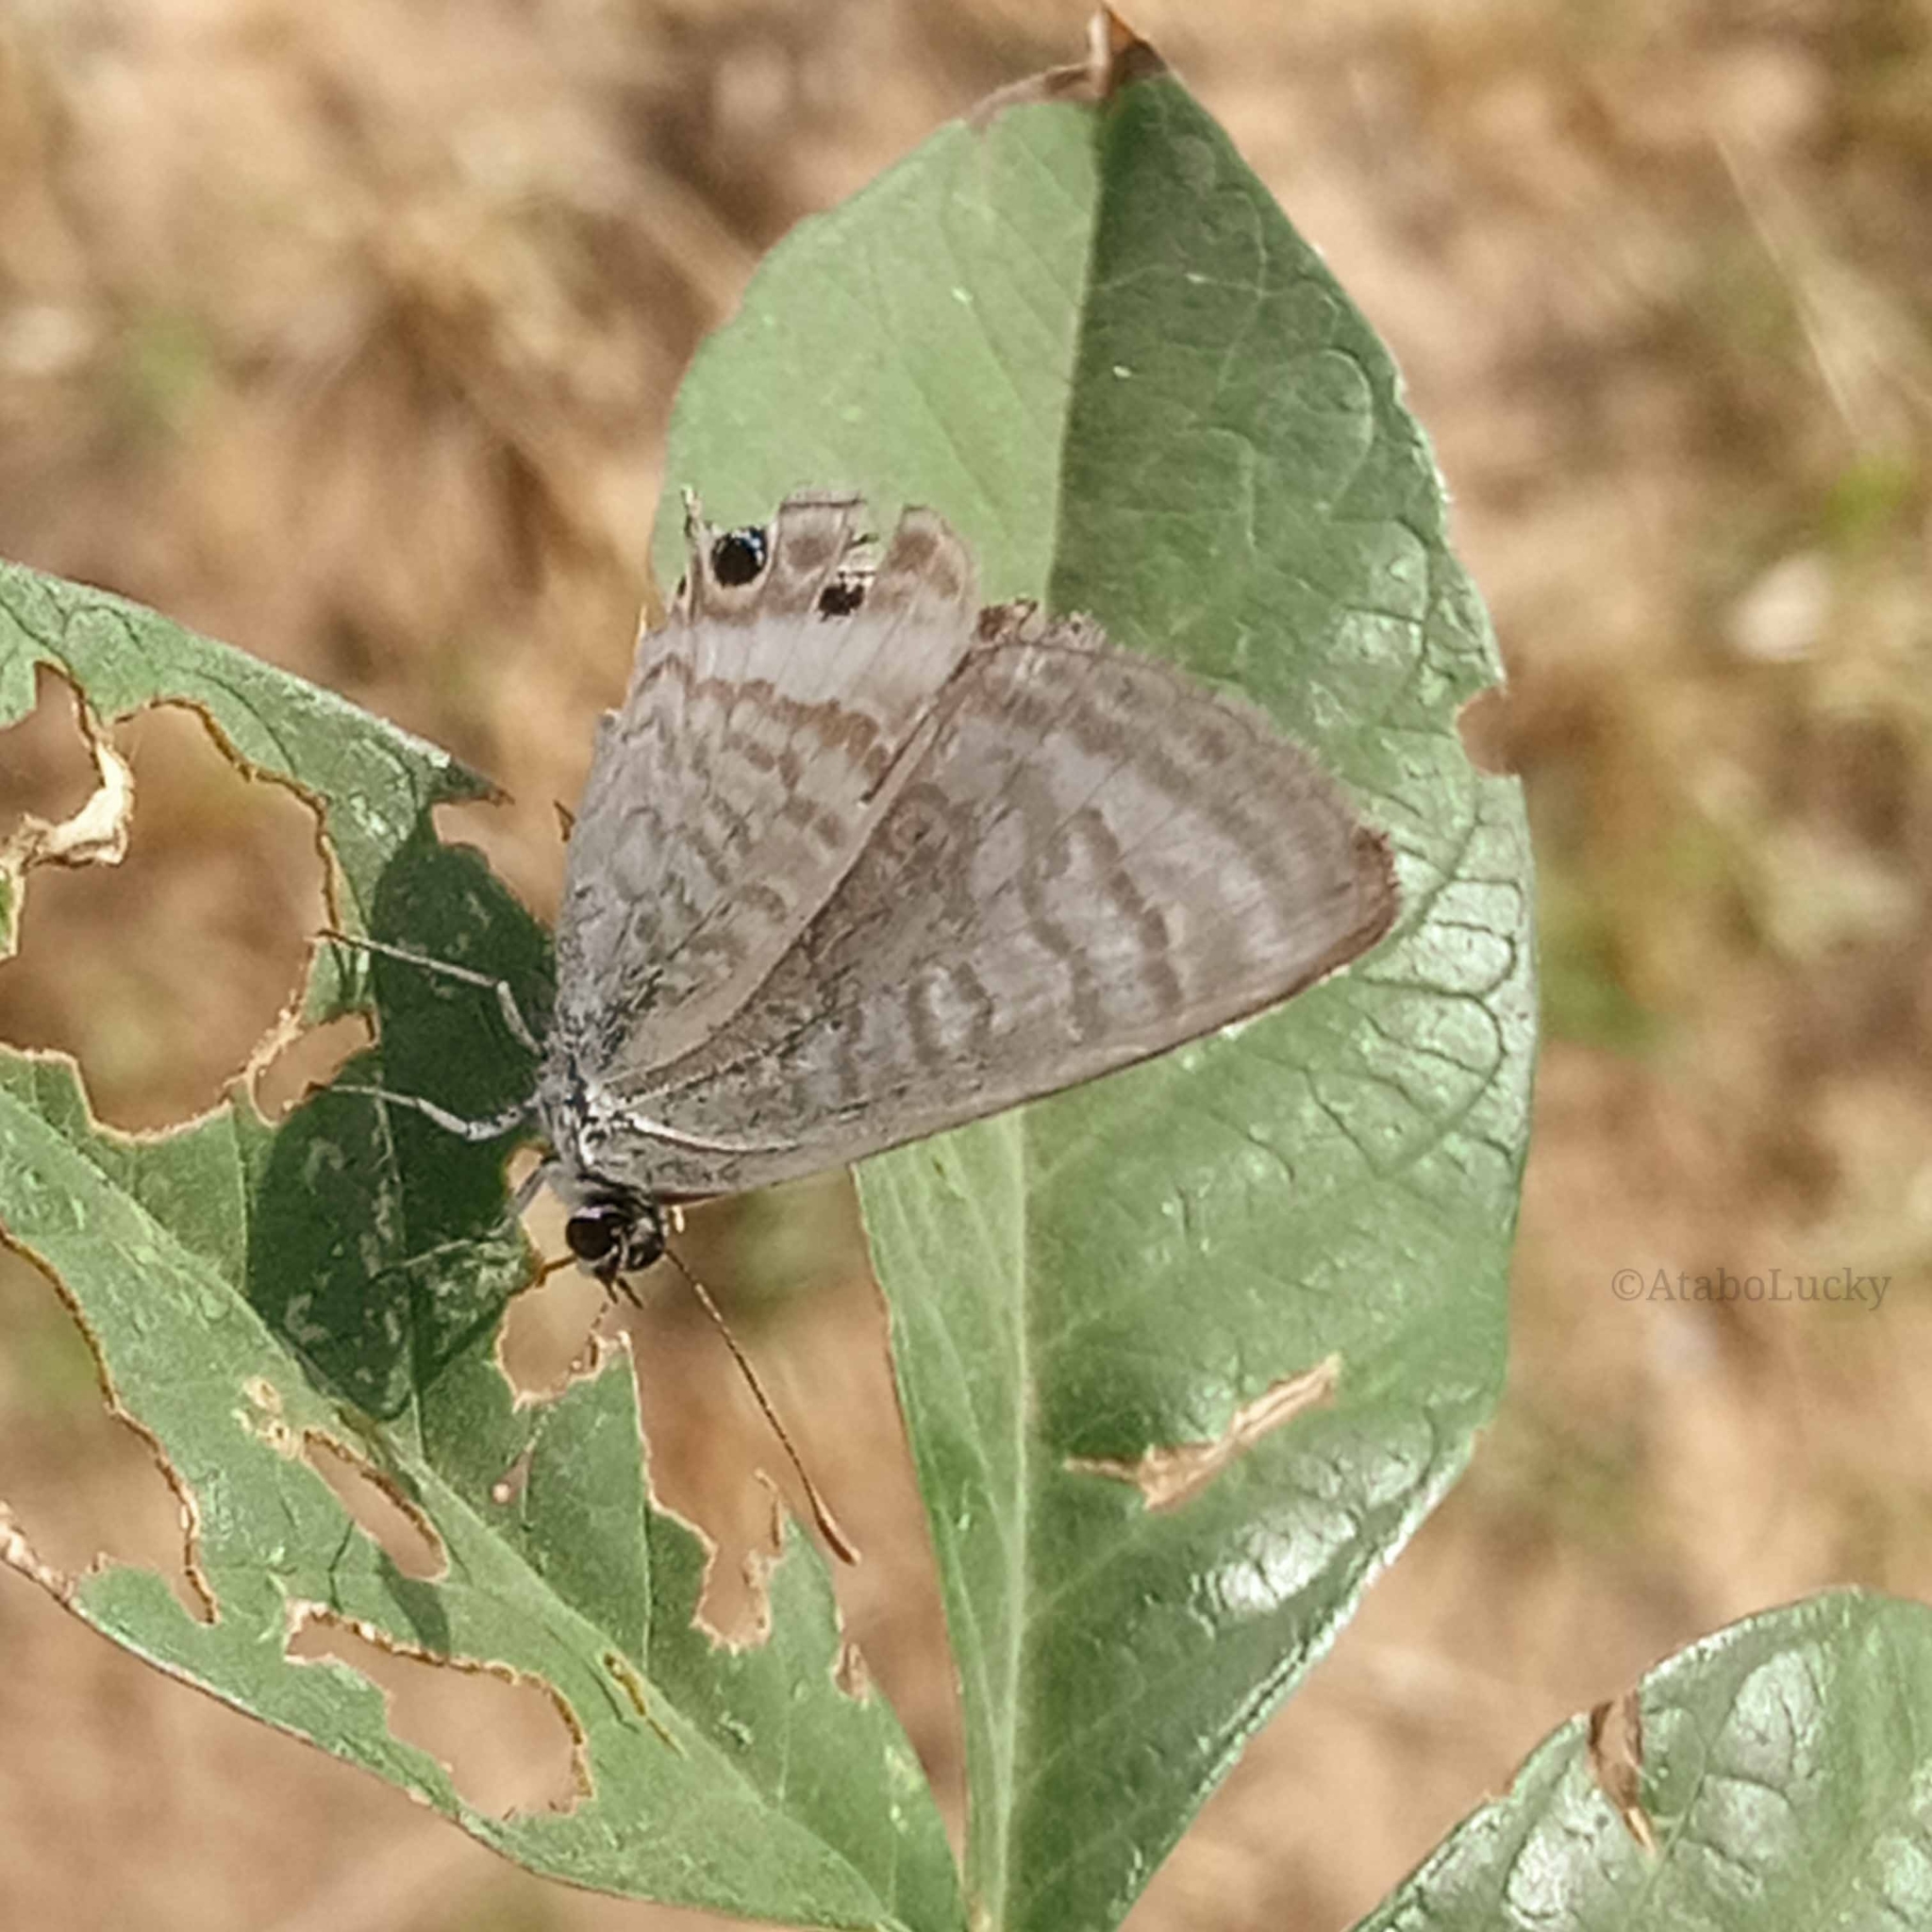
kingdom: Animalia
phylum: Arthropoda
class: Insecta
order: Lepidoptera
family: Lycaenidae
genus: Lampides
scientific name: Lampides boeticus
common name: Long-tailed blue
